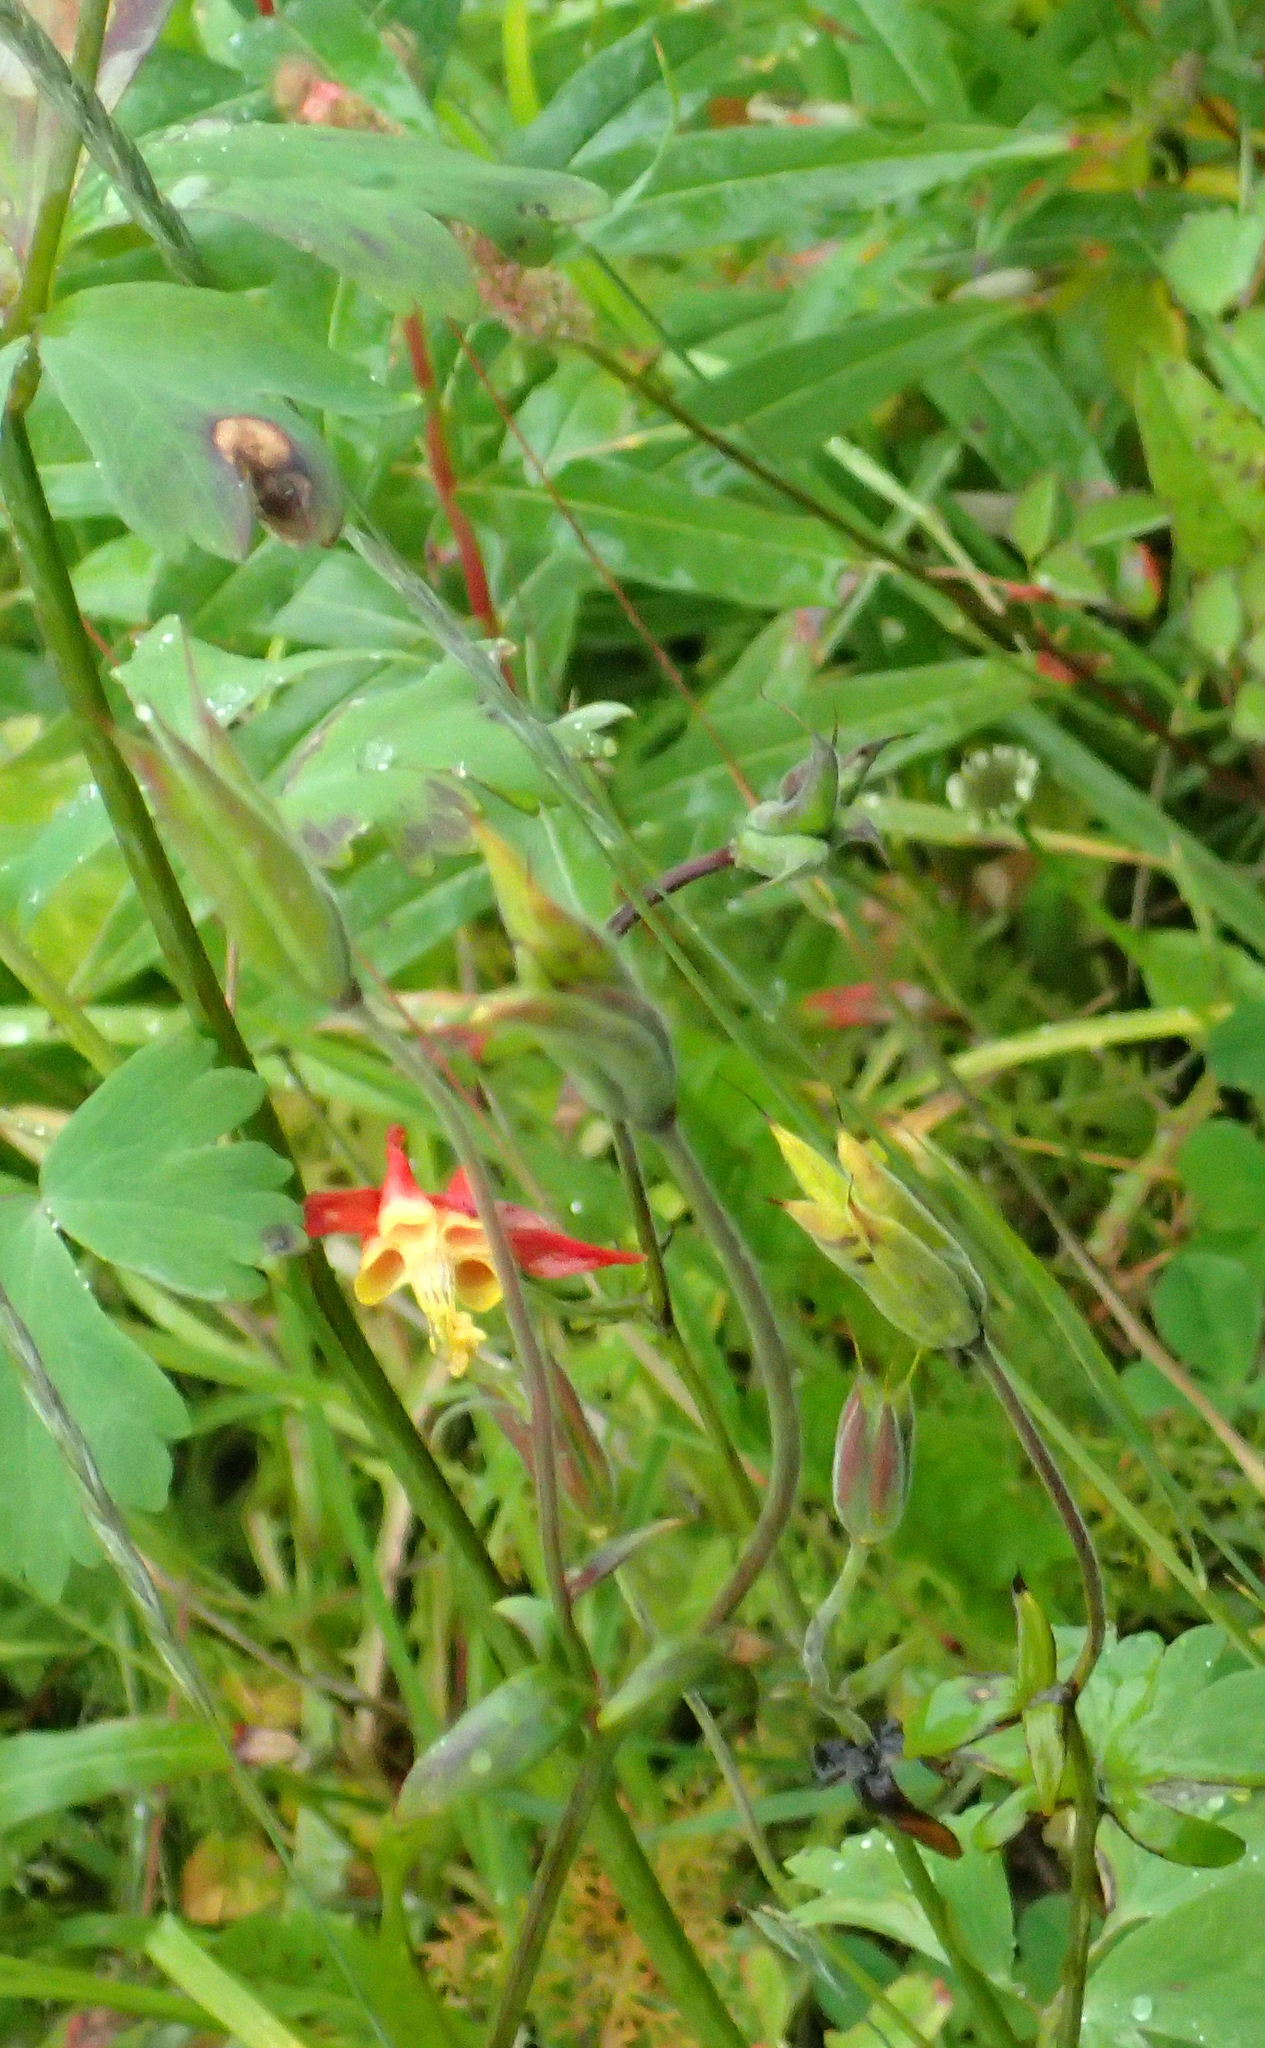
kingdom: Plantae
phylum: Tracheophyta
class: Magnoliopsida
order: Ranunculales
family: Ranunculaceae
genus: Aquilegia
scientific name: Aquilegia formosa
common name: Sitka columbine
